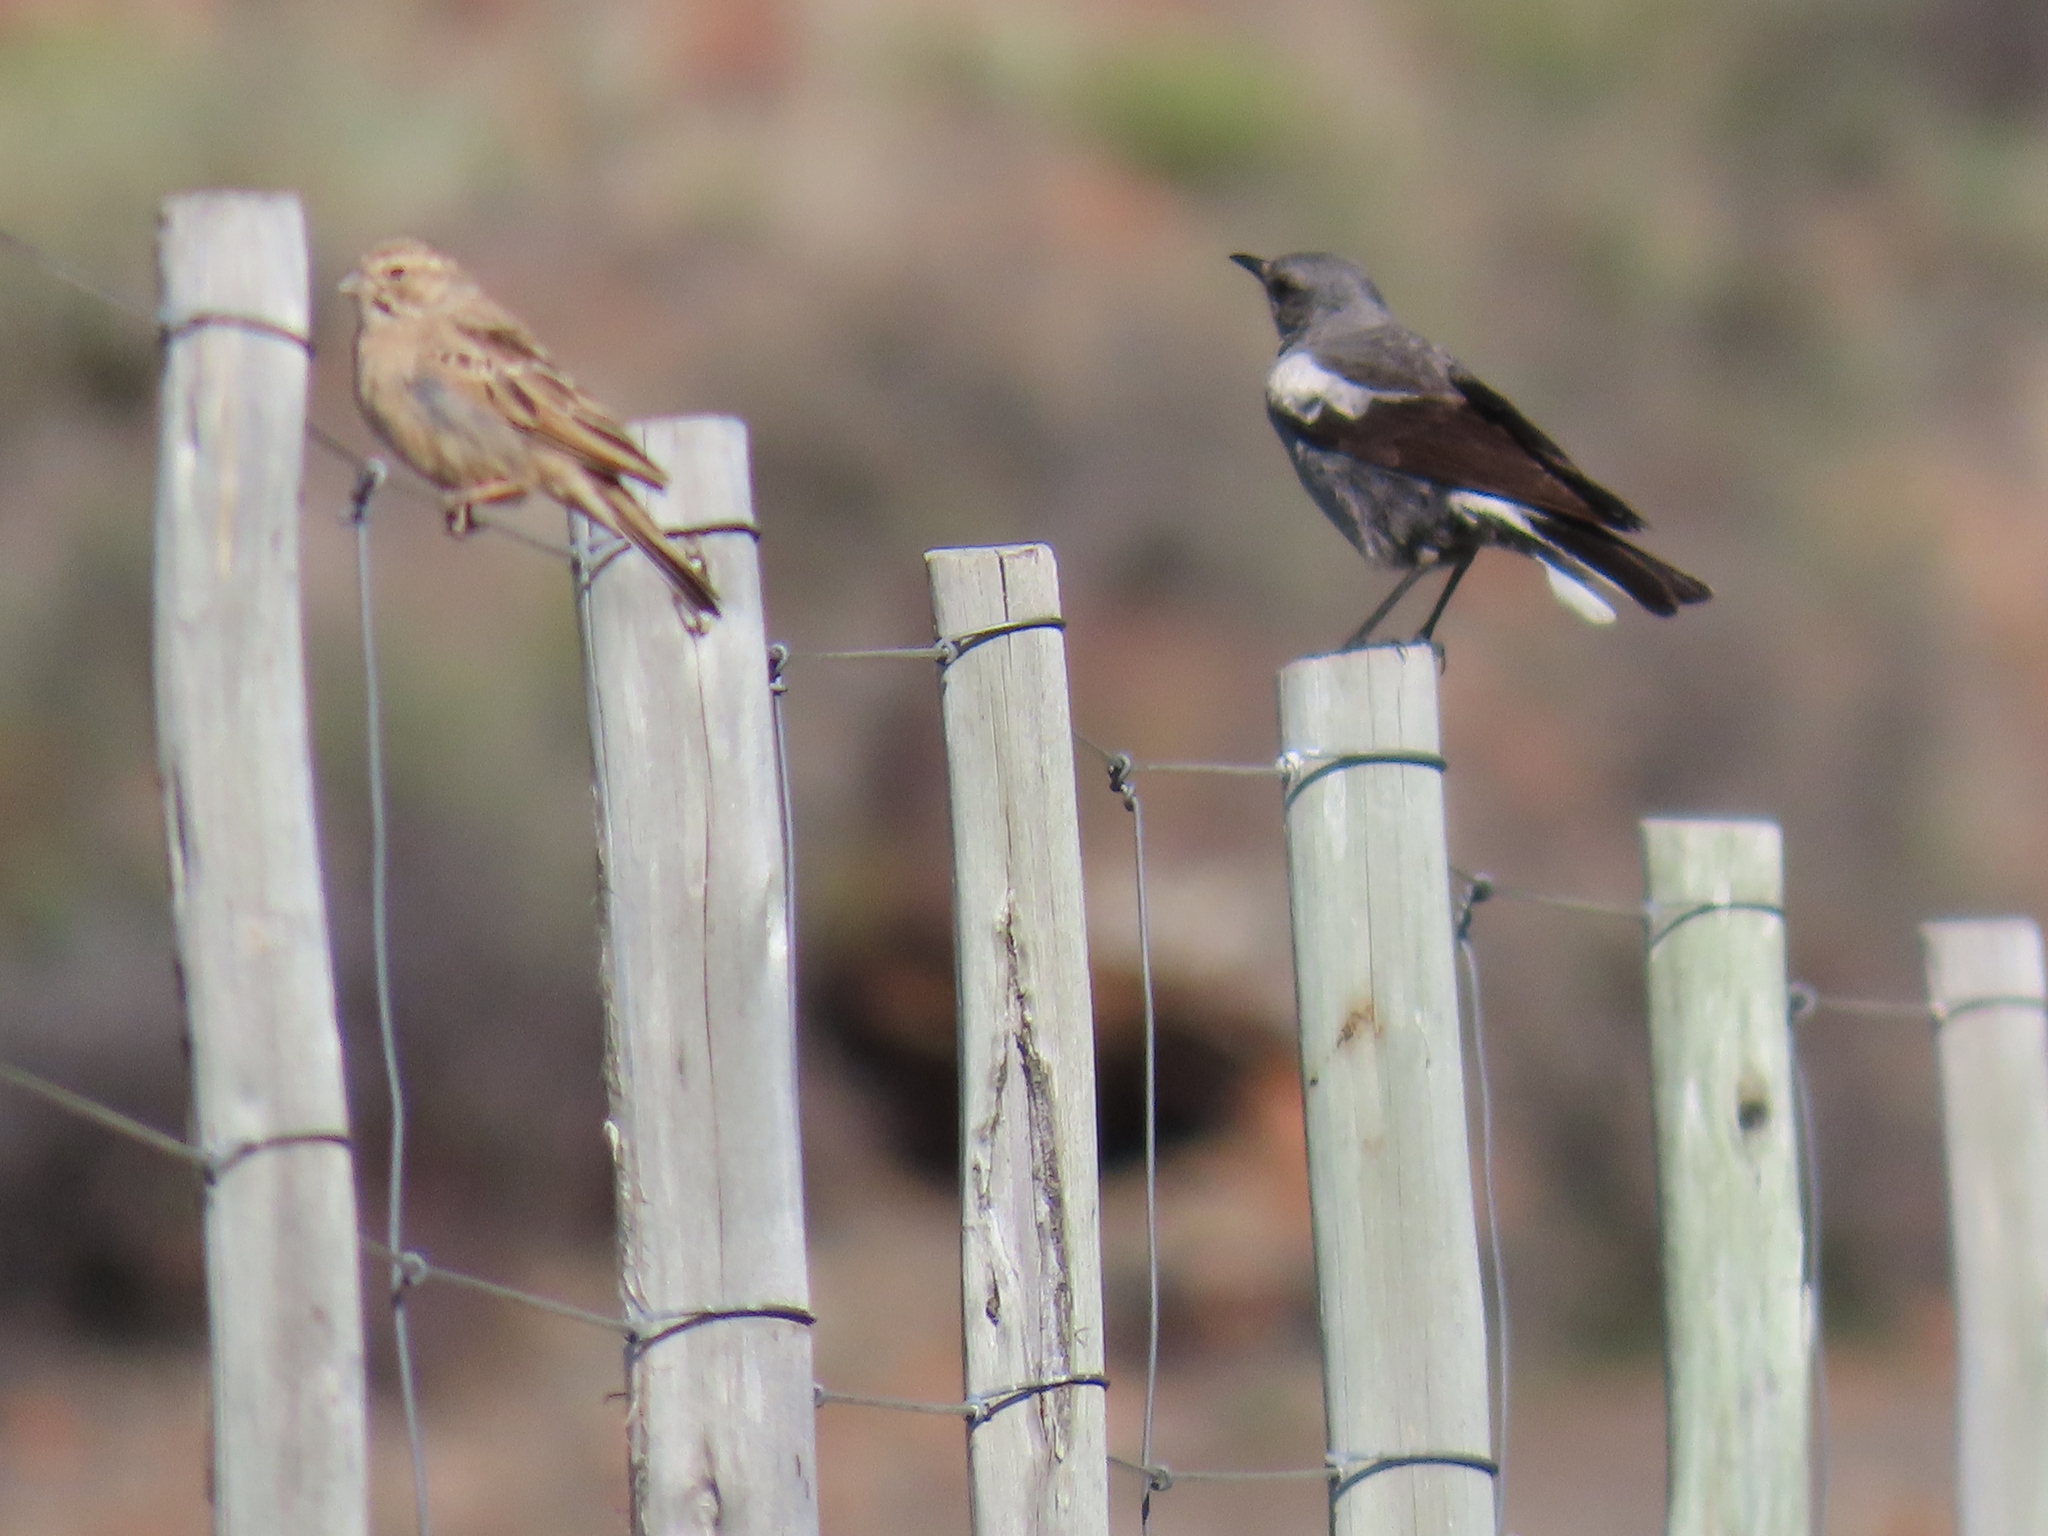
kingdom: Animalia
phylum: Chordata
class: Aves
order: Passeriformes
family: Muscicapidae
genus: Oenanthe
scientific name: Oenanthe monticola
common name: Mountain wheatear
